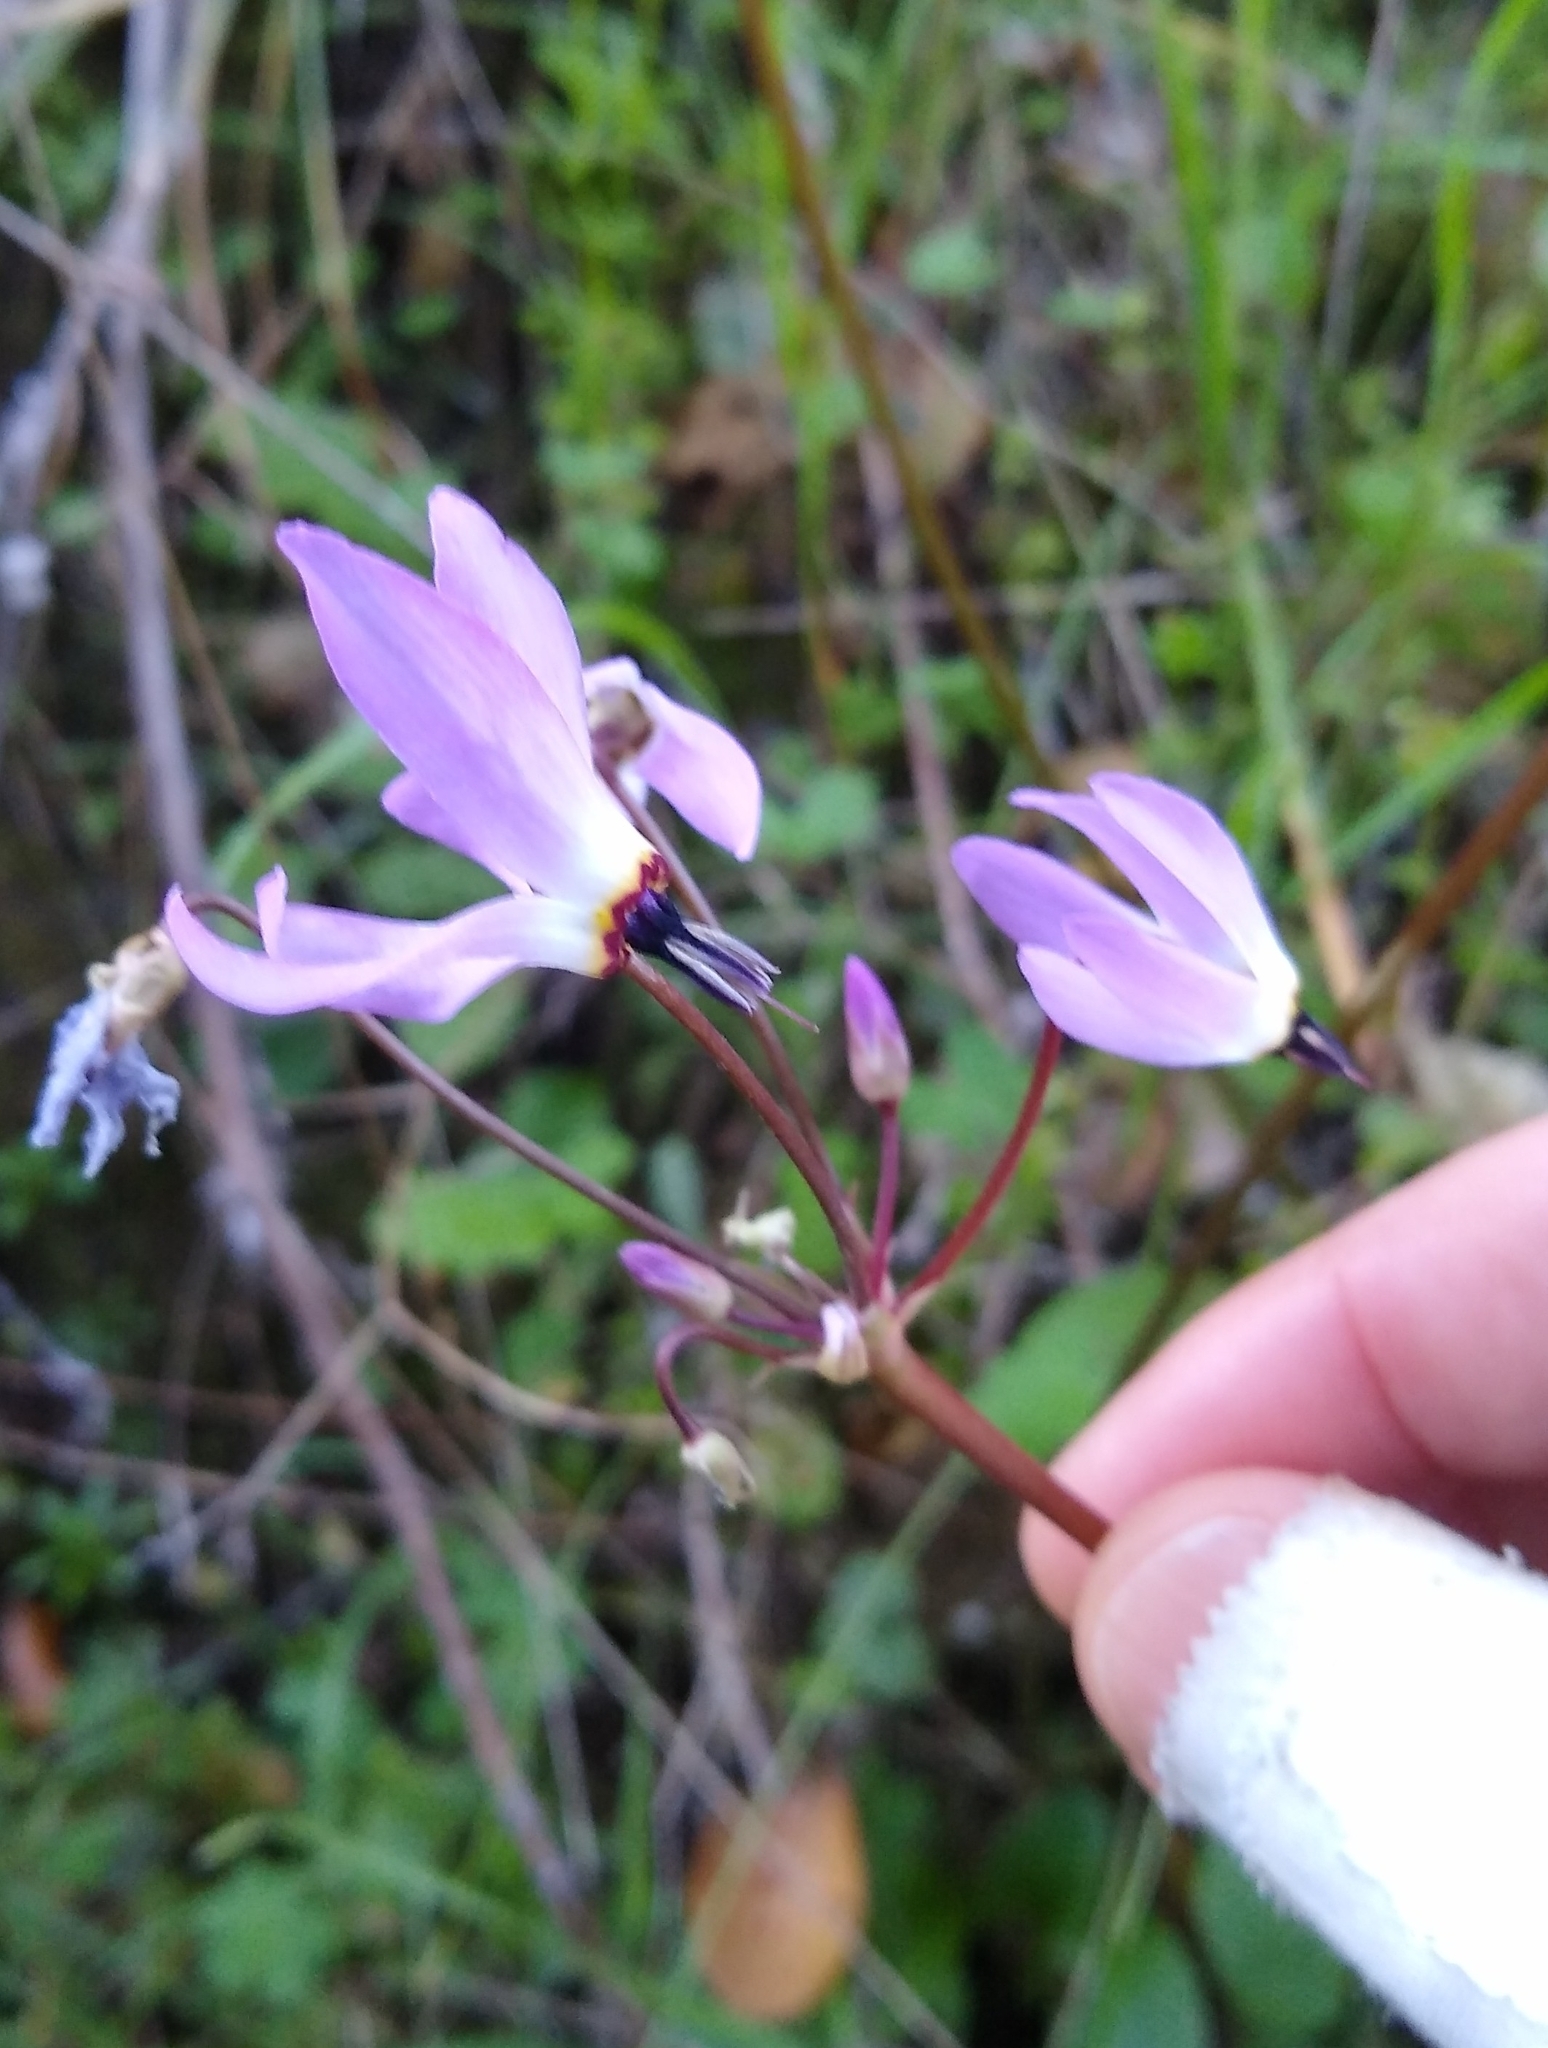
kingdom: Plantae
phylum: Tracheophyta
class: Magnoliopsida
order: Ericales
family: Primulaceae
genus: Dodecatheon
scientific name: Dodecatheon hendersonii
